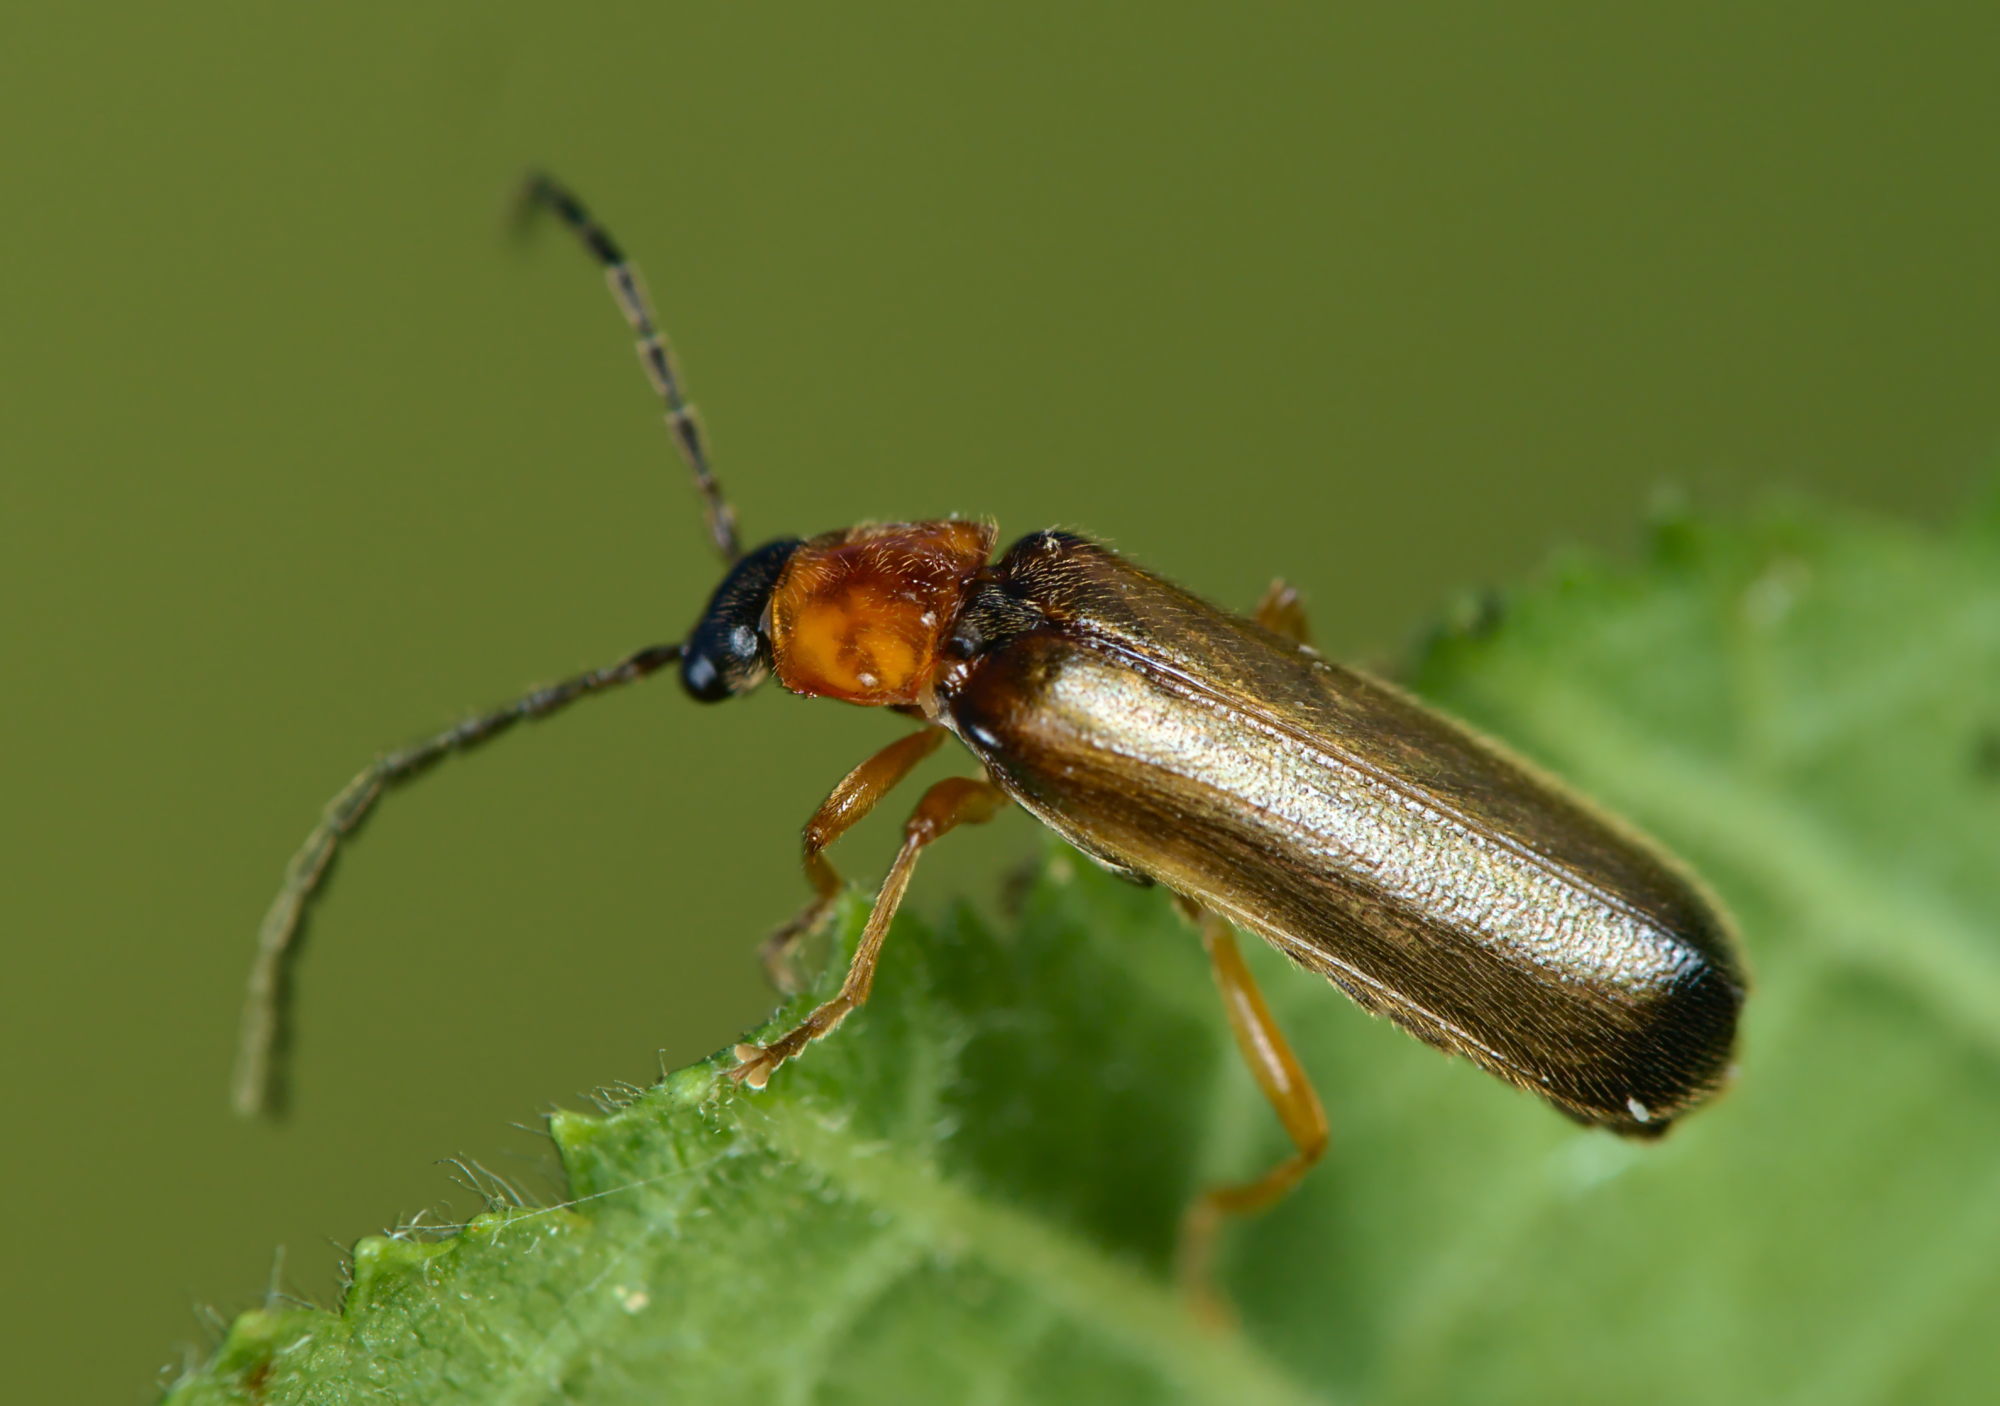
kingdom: Animalia
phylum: Arthropoda
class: Insecta
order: Coleoptera
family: Cantharidae
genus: Rhagonycha
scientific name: Rhagonycha lutea
